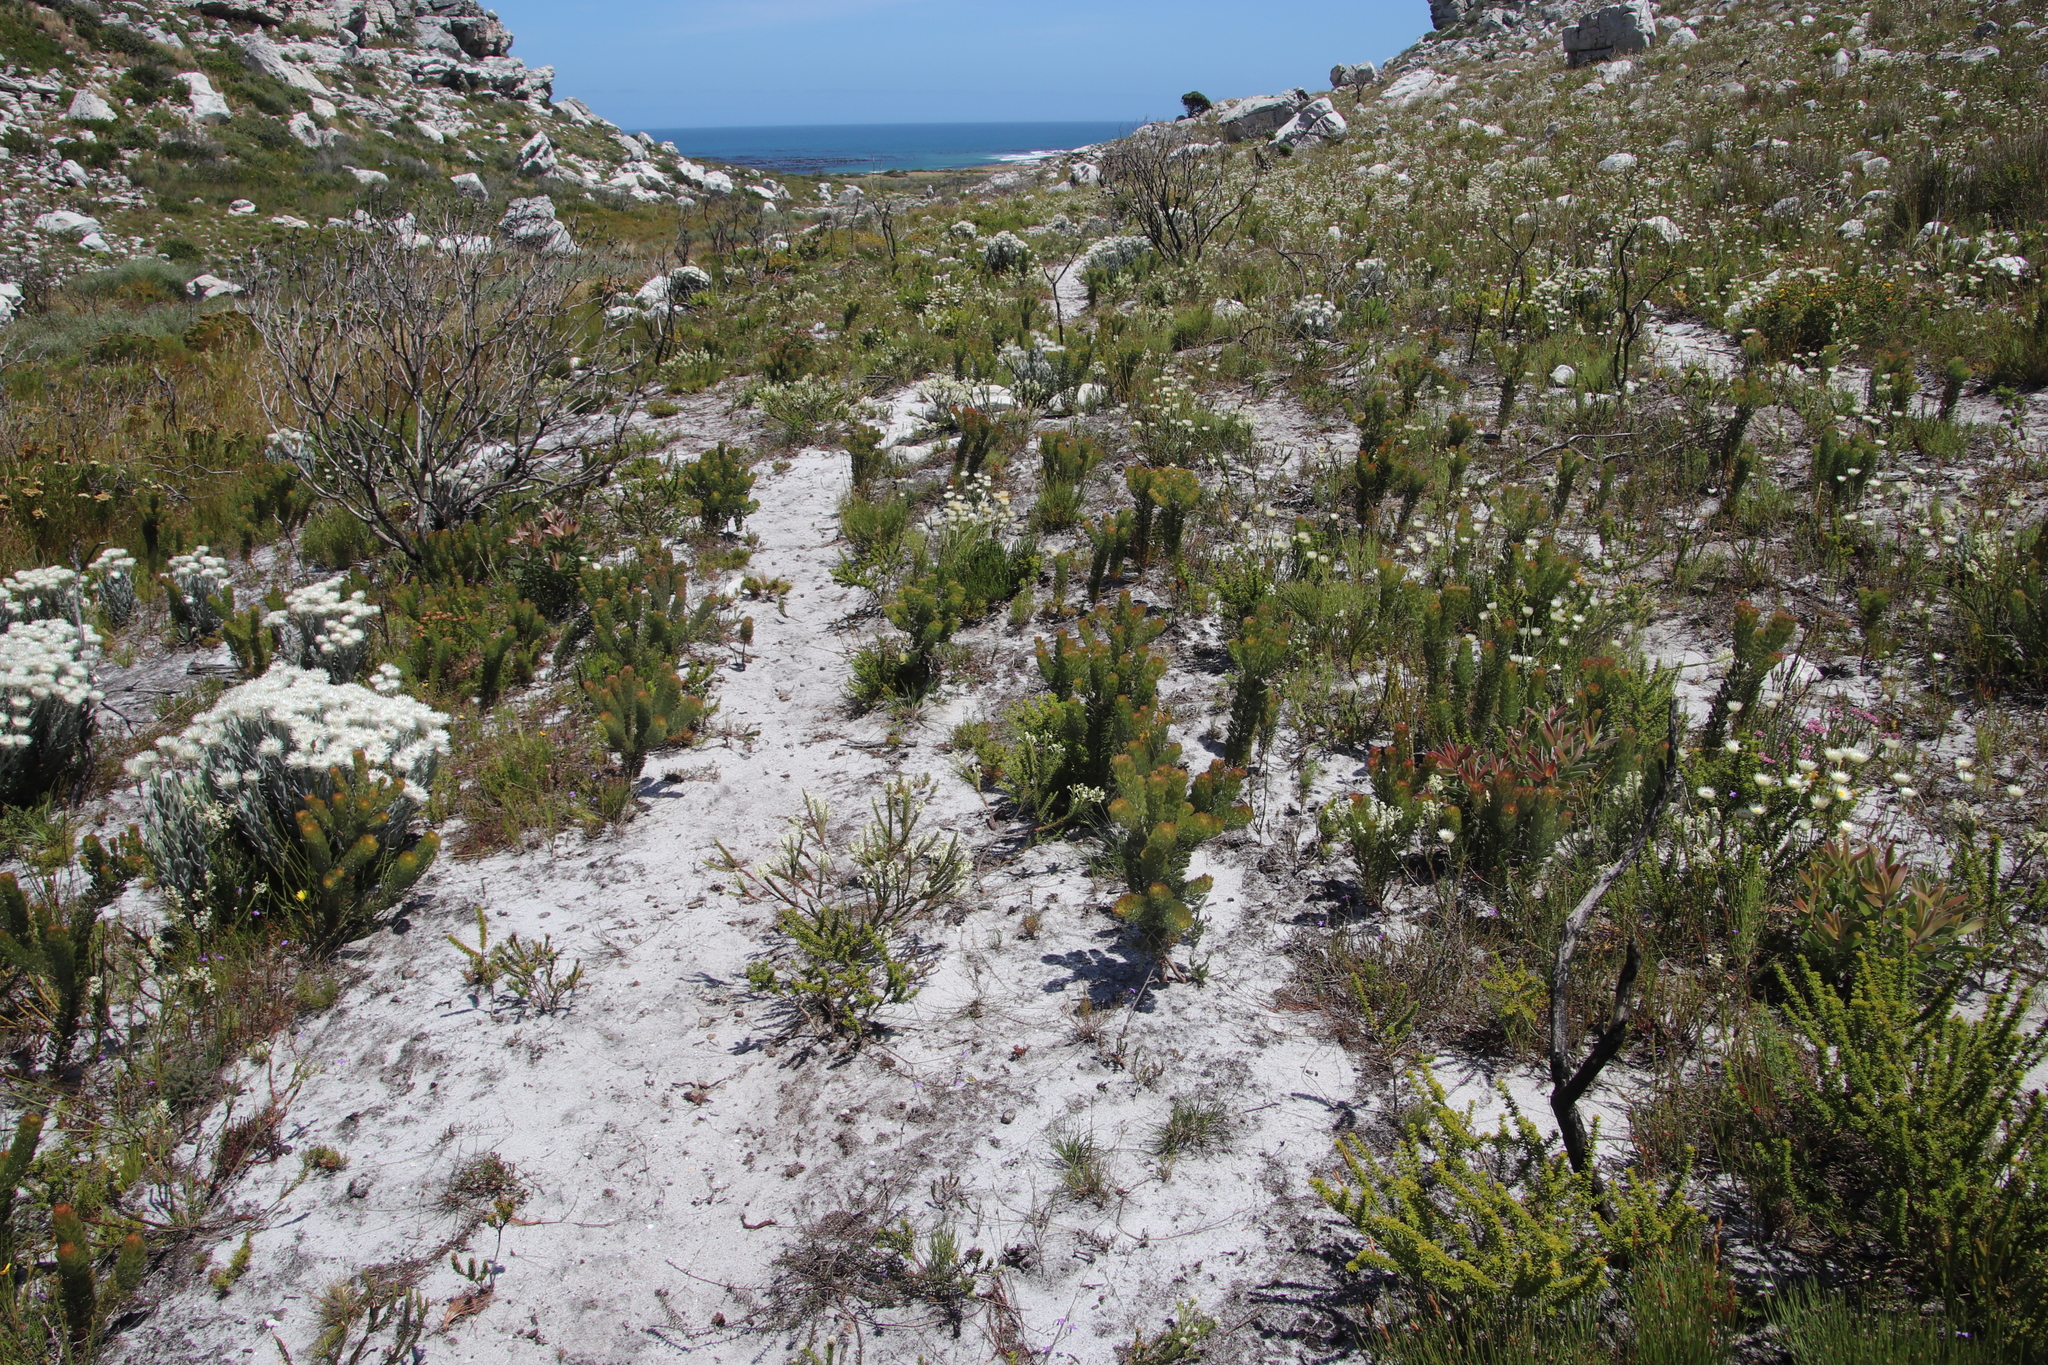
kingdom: Plantae
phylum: Tracheophyta
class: Magnoliopsida
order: Proteales
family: Proteaceae
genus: Serruria
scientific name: Serruria villosa
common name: Golden spiderhead
